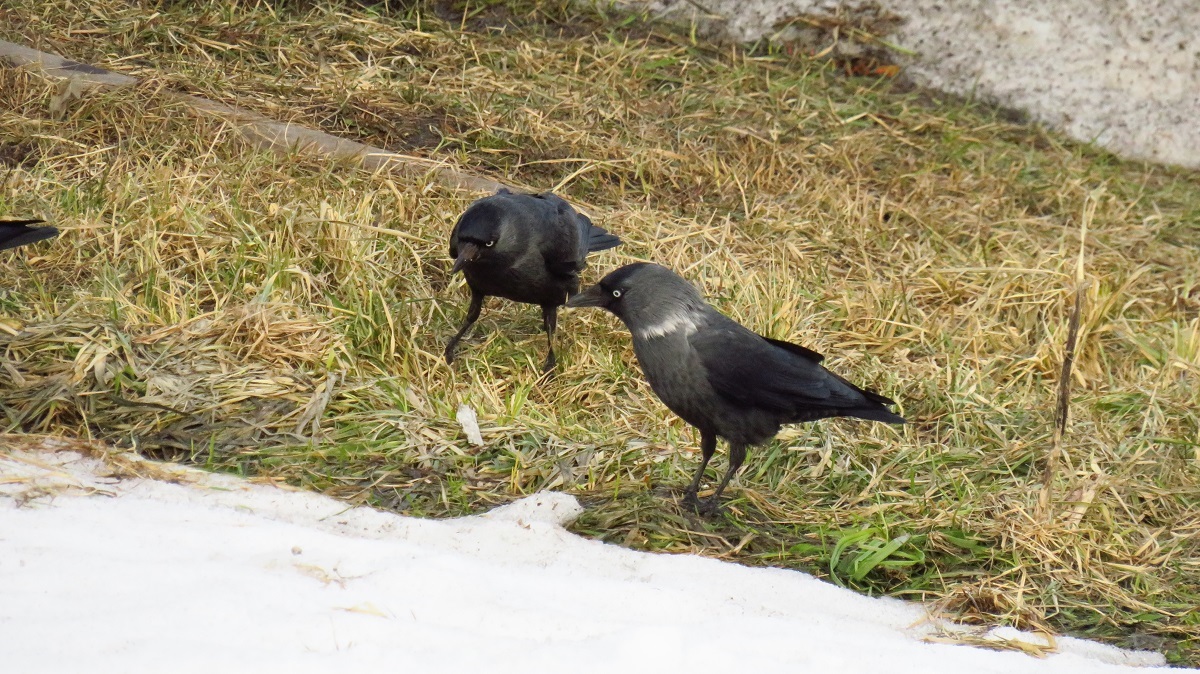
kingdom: Animalia
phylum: Chordata
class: Aves
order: Passeriformes
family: Corvidae
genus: Coloeus
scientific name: Coloeus monedula
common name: Western jackdaw
